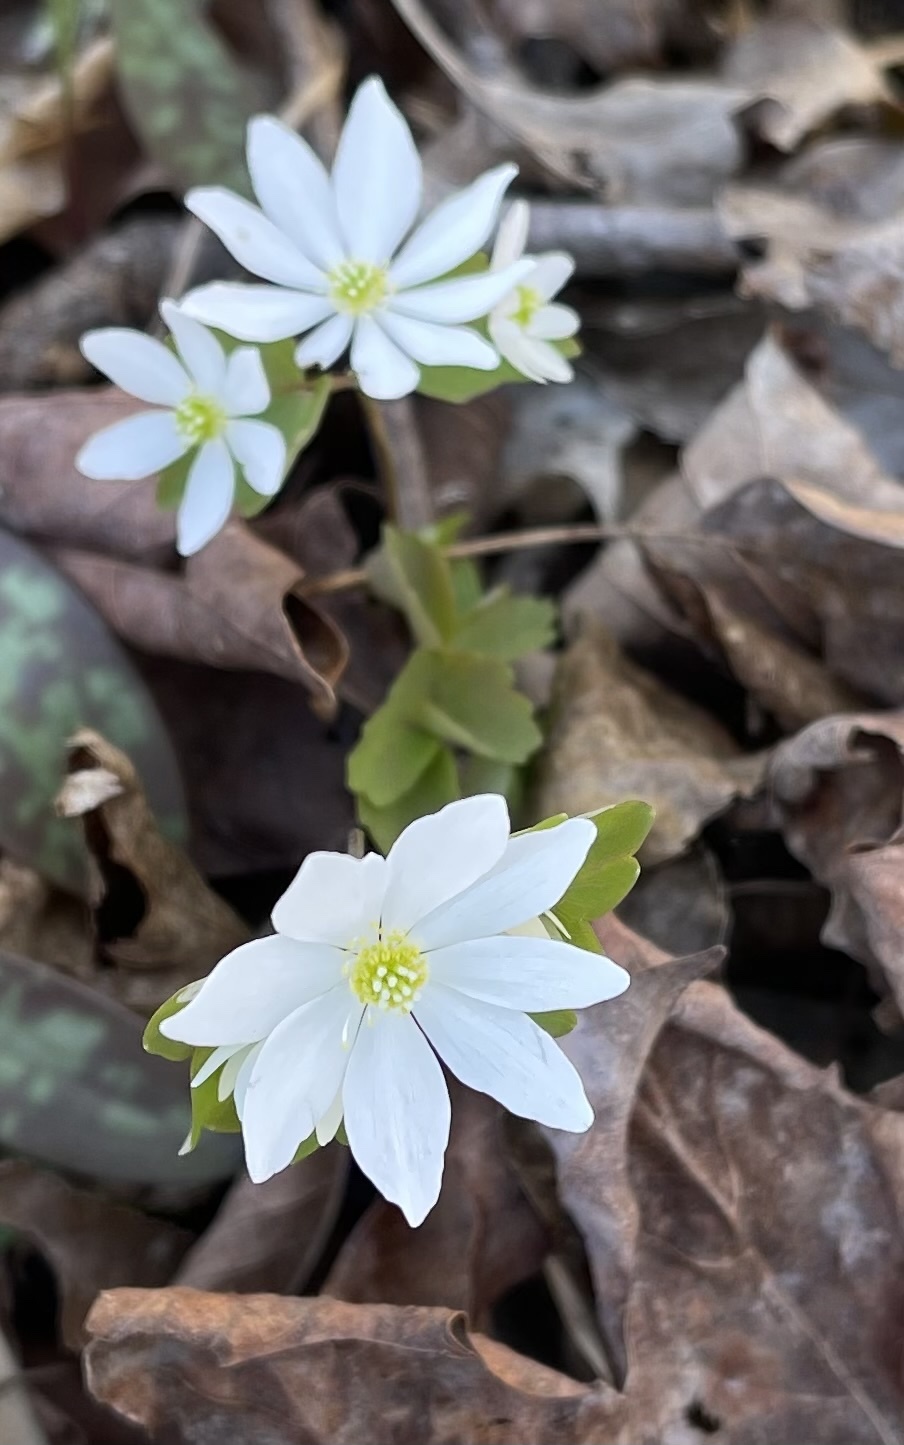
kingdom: Plantae
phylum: Tracheophyta
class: Magnoliopsida
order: Ranunculales
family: Ranunculaceae
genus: Thalictrum
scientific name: Thalictrum thalictroides
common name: Rue-anemone
